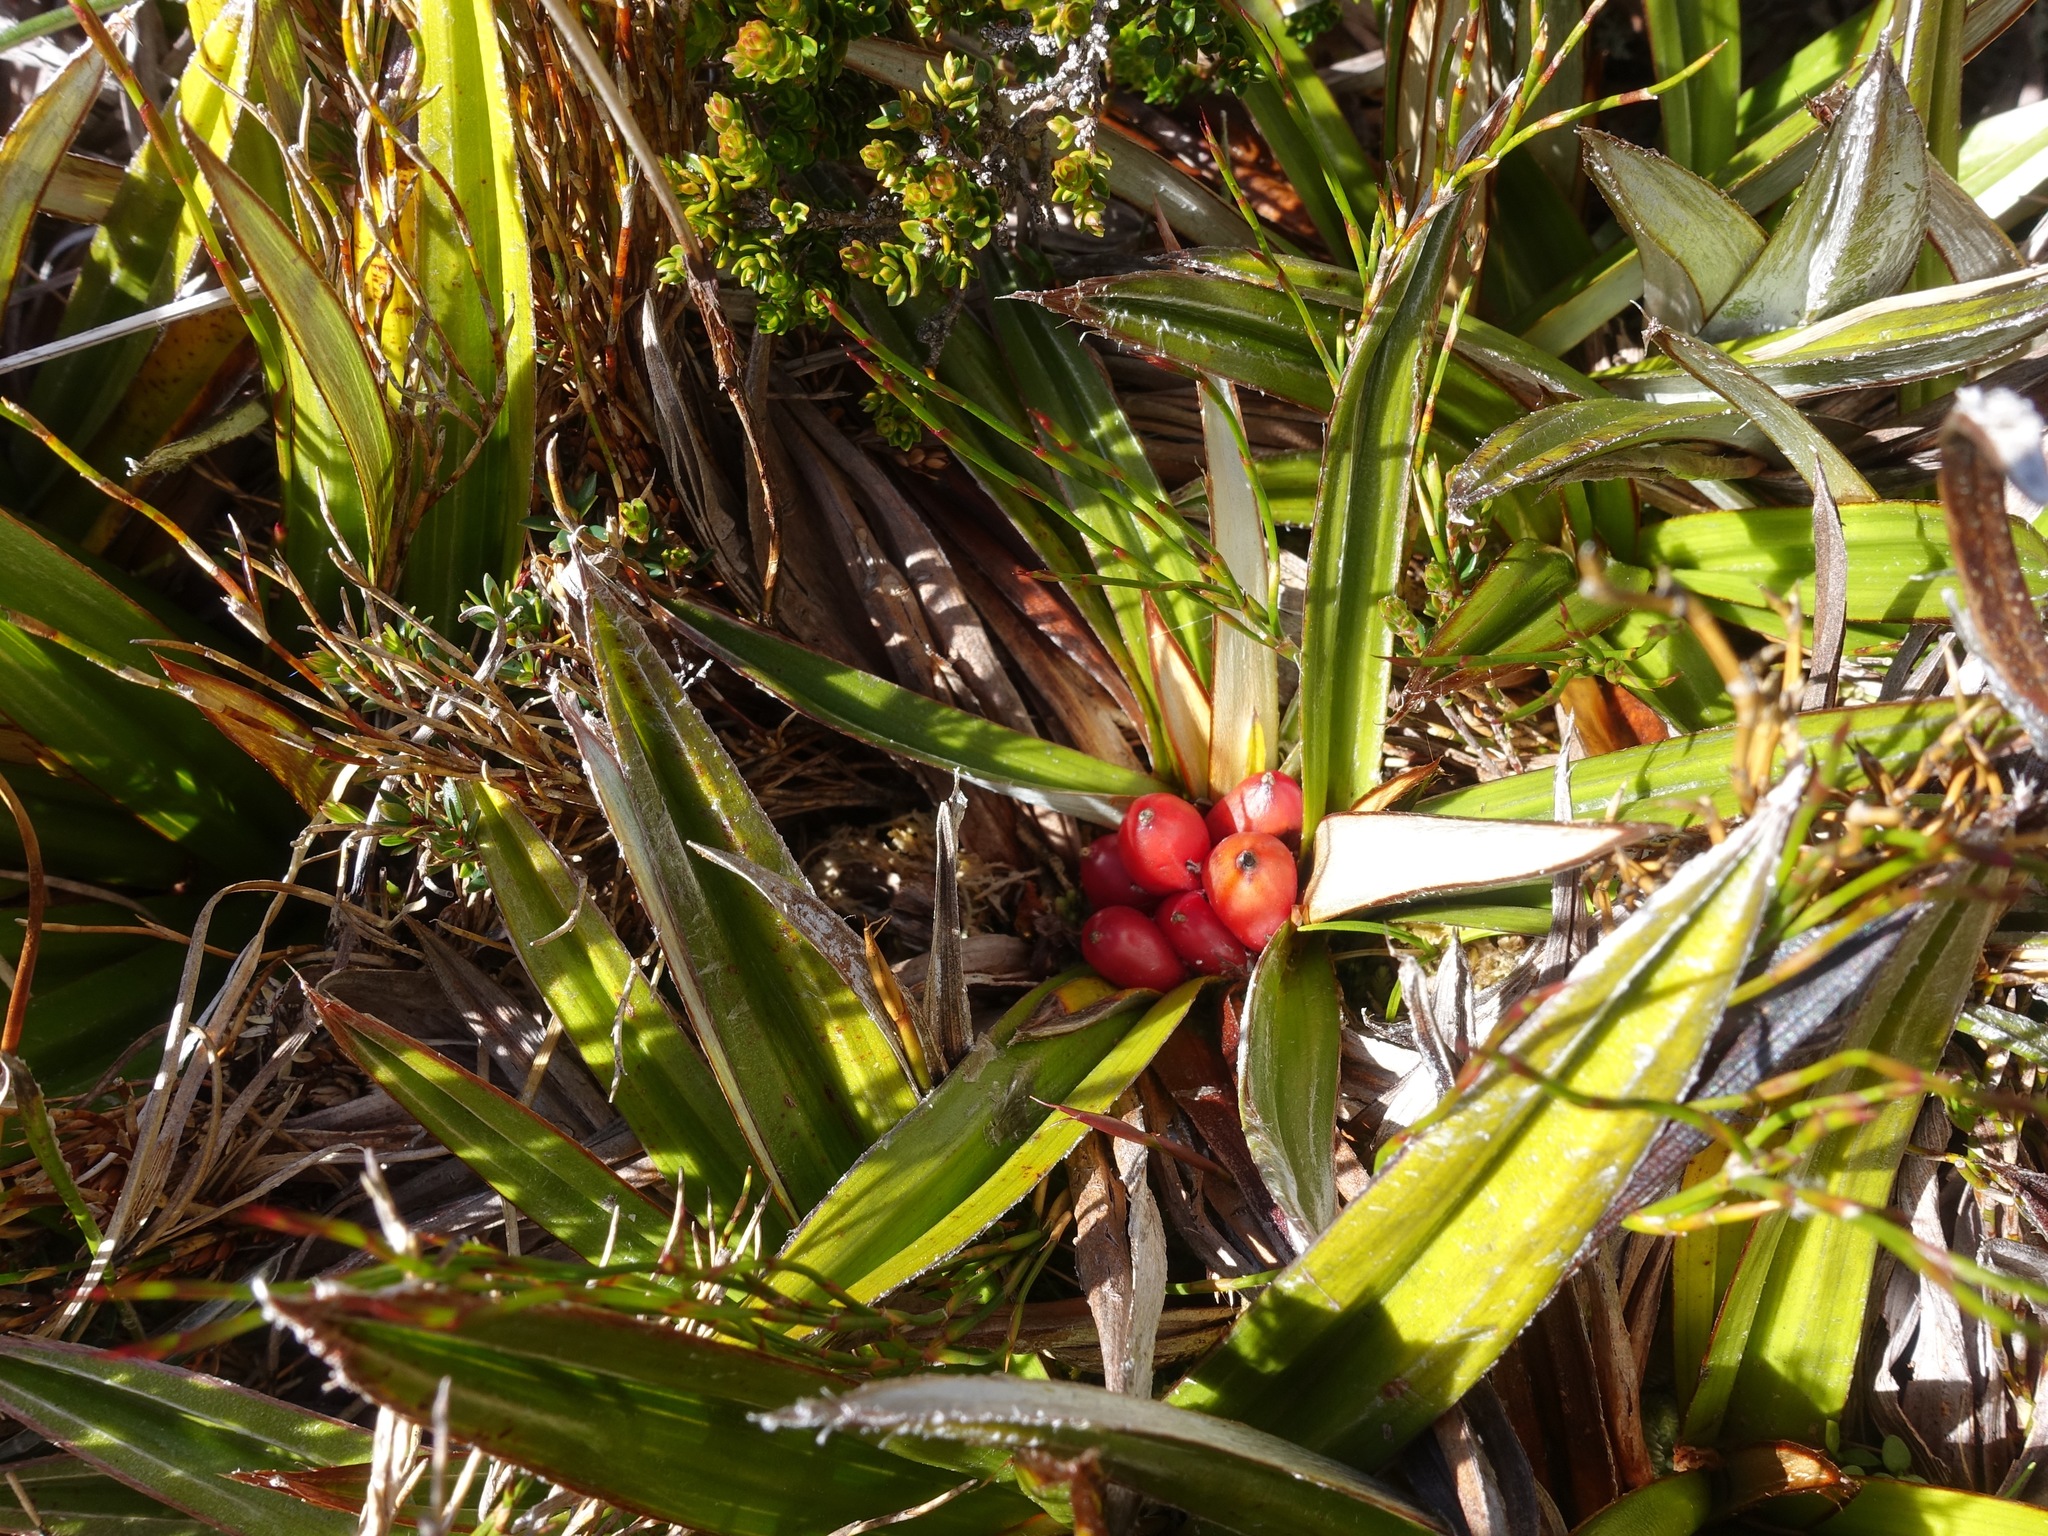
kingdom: Plantae
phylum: Tracheophyta
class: Liliopsida
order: Asparagales
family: Asteliaceae
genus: Astelia
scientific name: Astelia alpina
